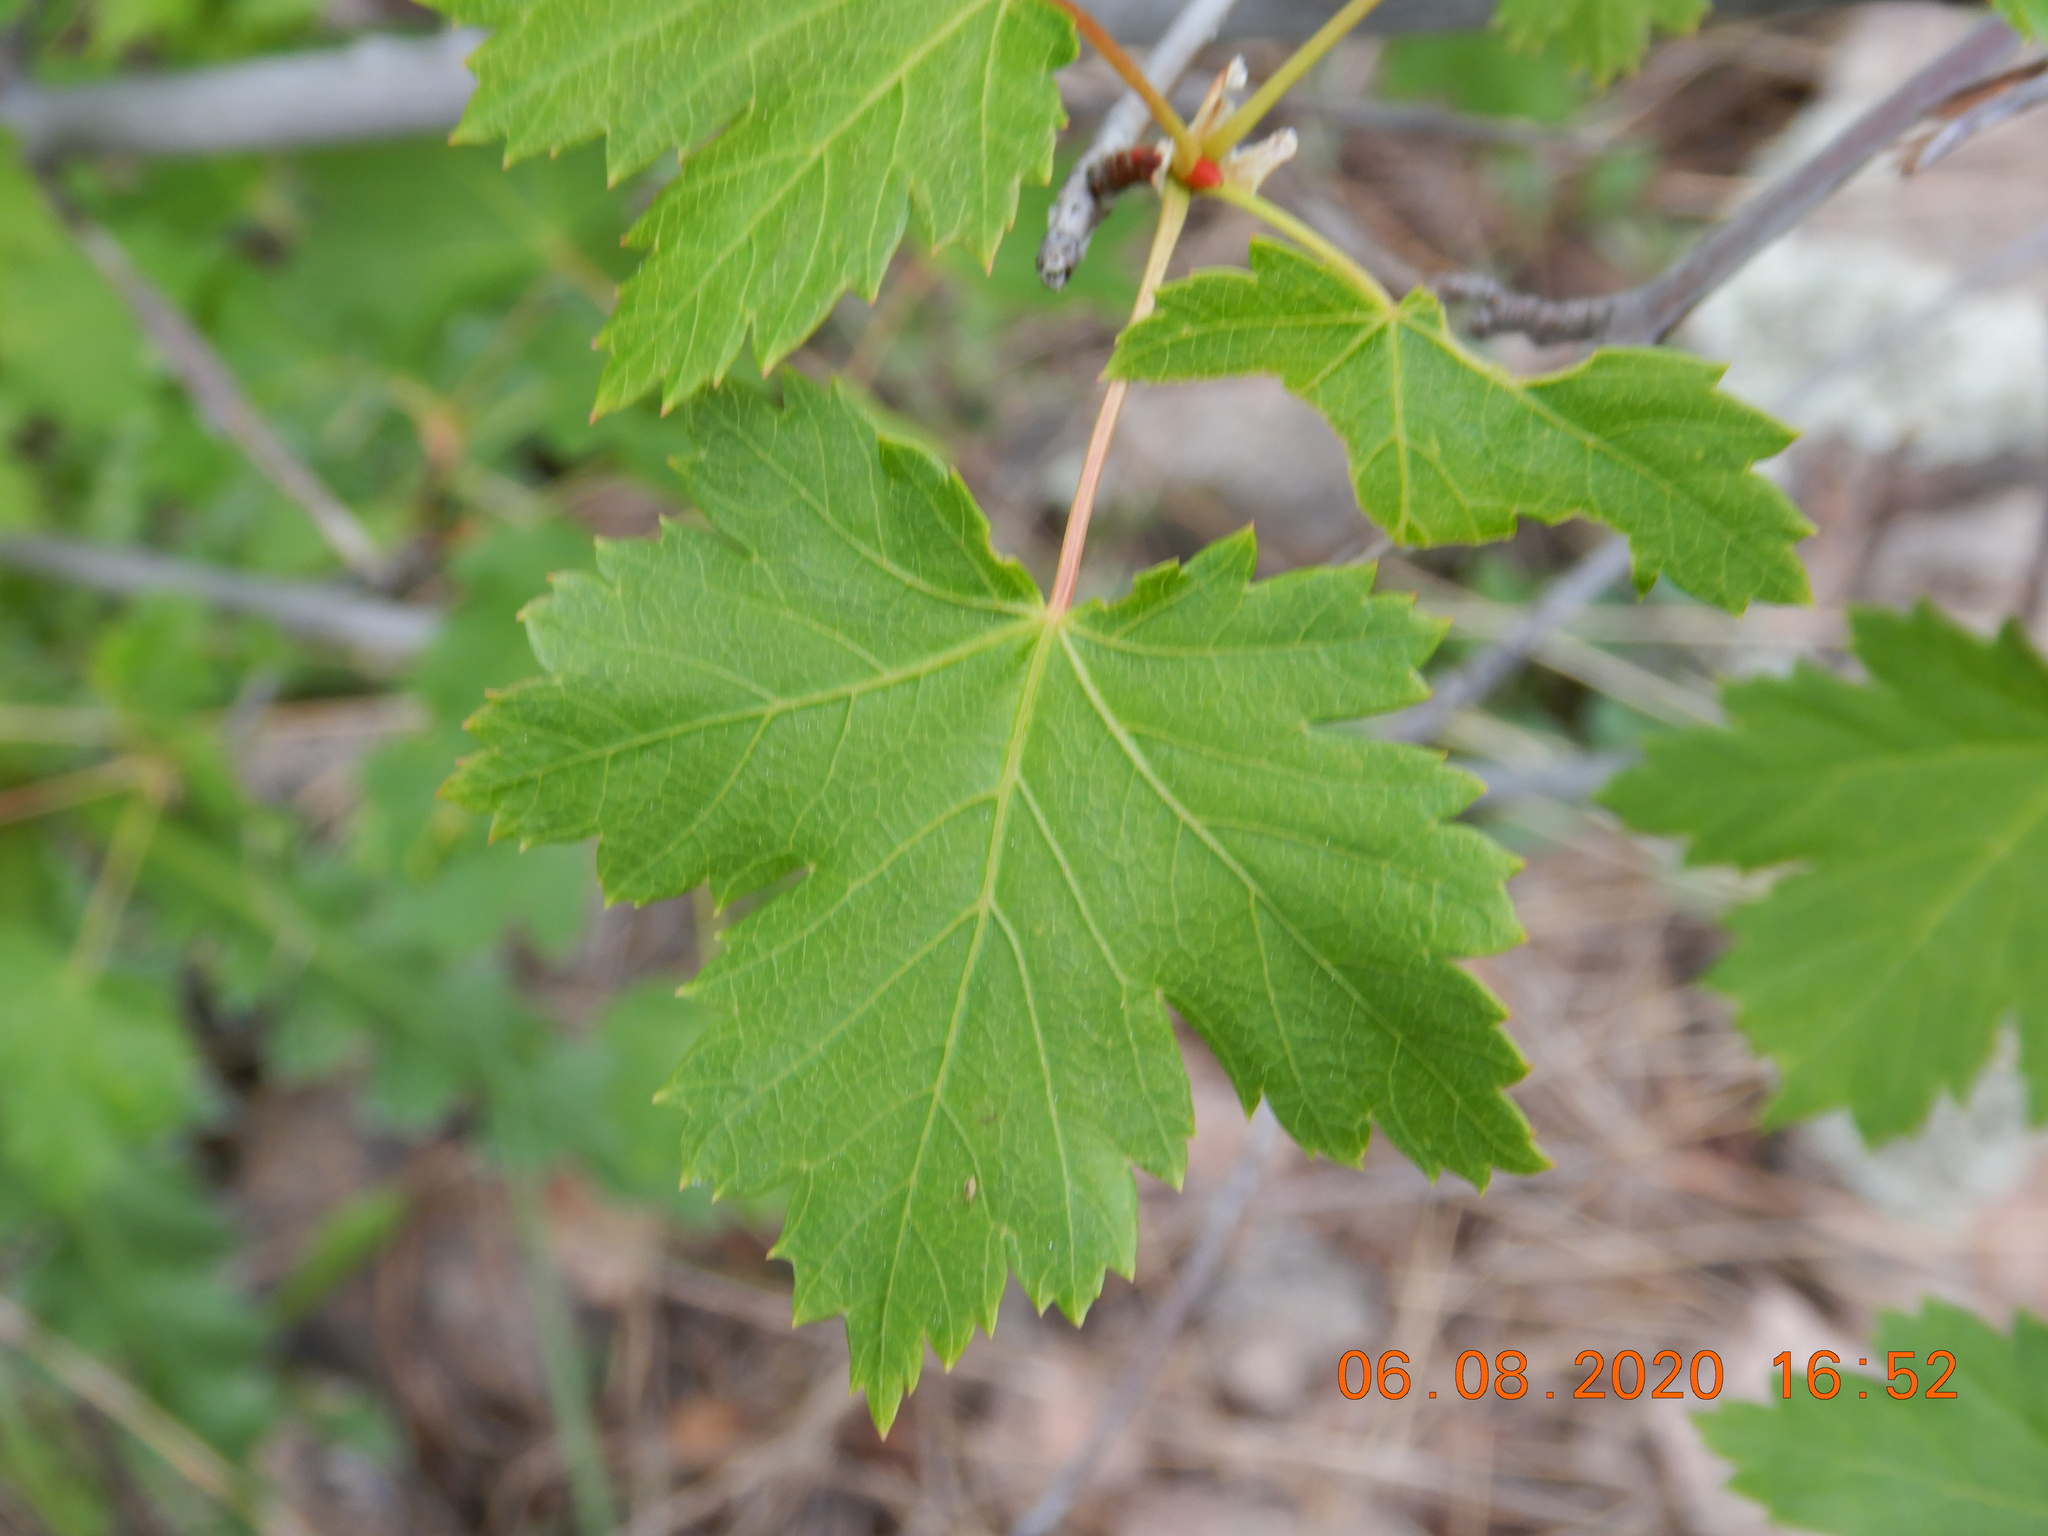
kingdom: Plantae
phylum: Tracheophyta
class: Magnoliopsida
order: Sapindales
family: Sapindaceae
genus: Acer
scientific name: Acer glabrum
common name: Rocky mountain maple
